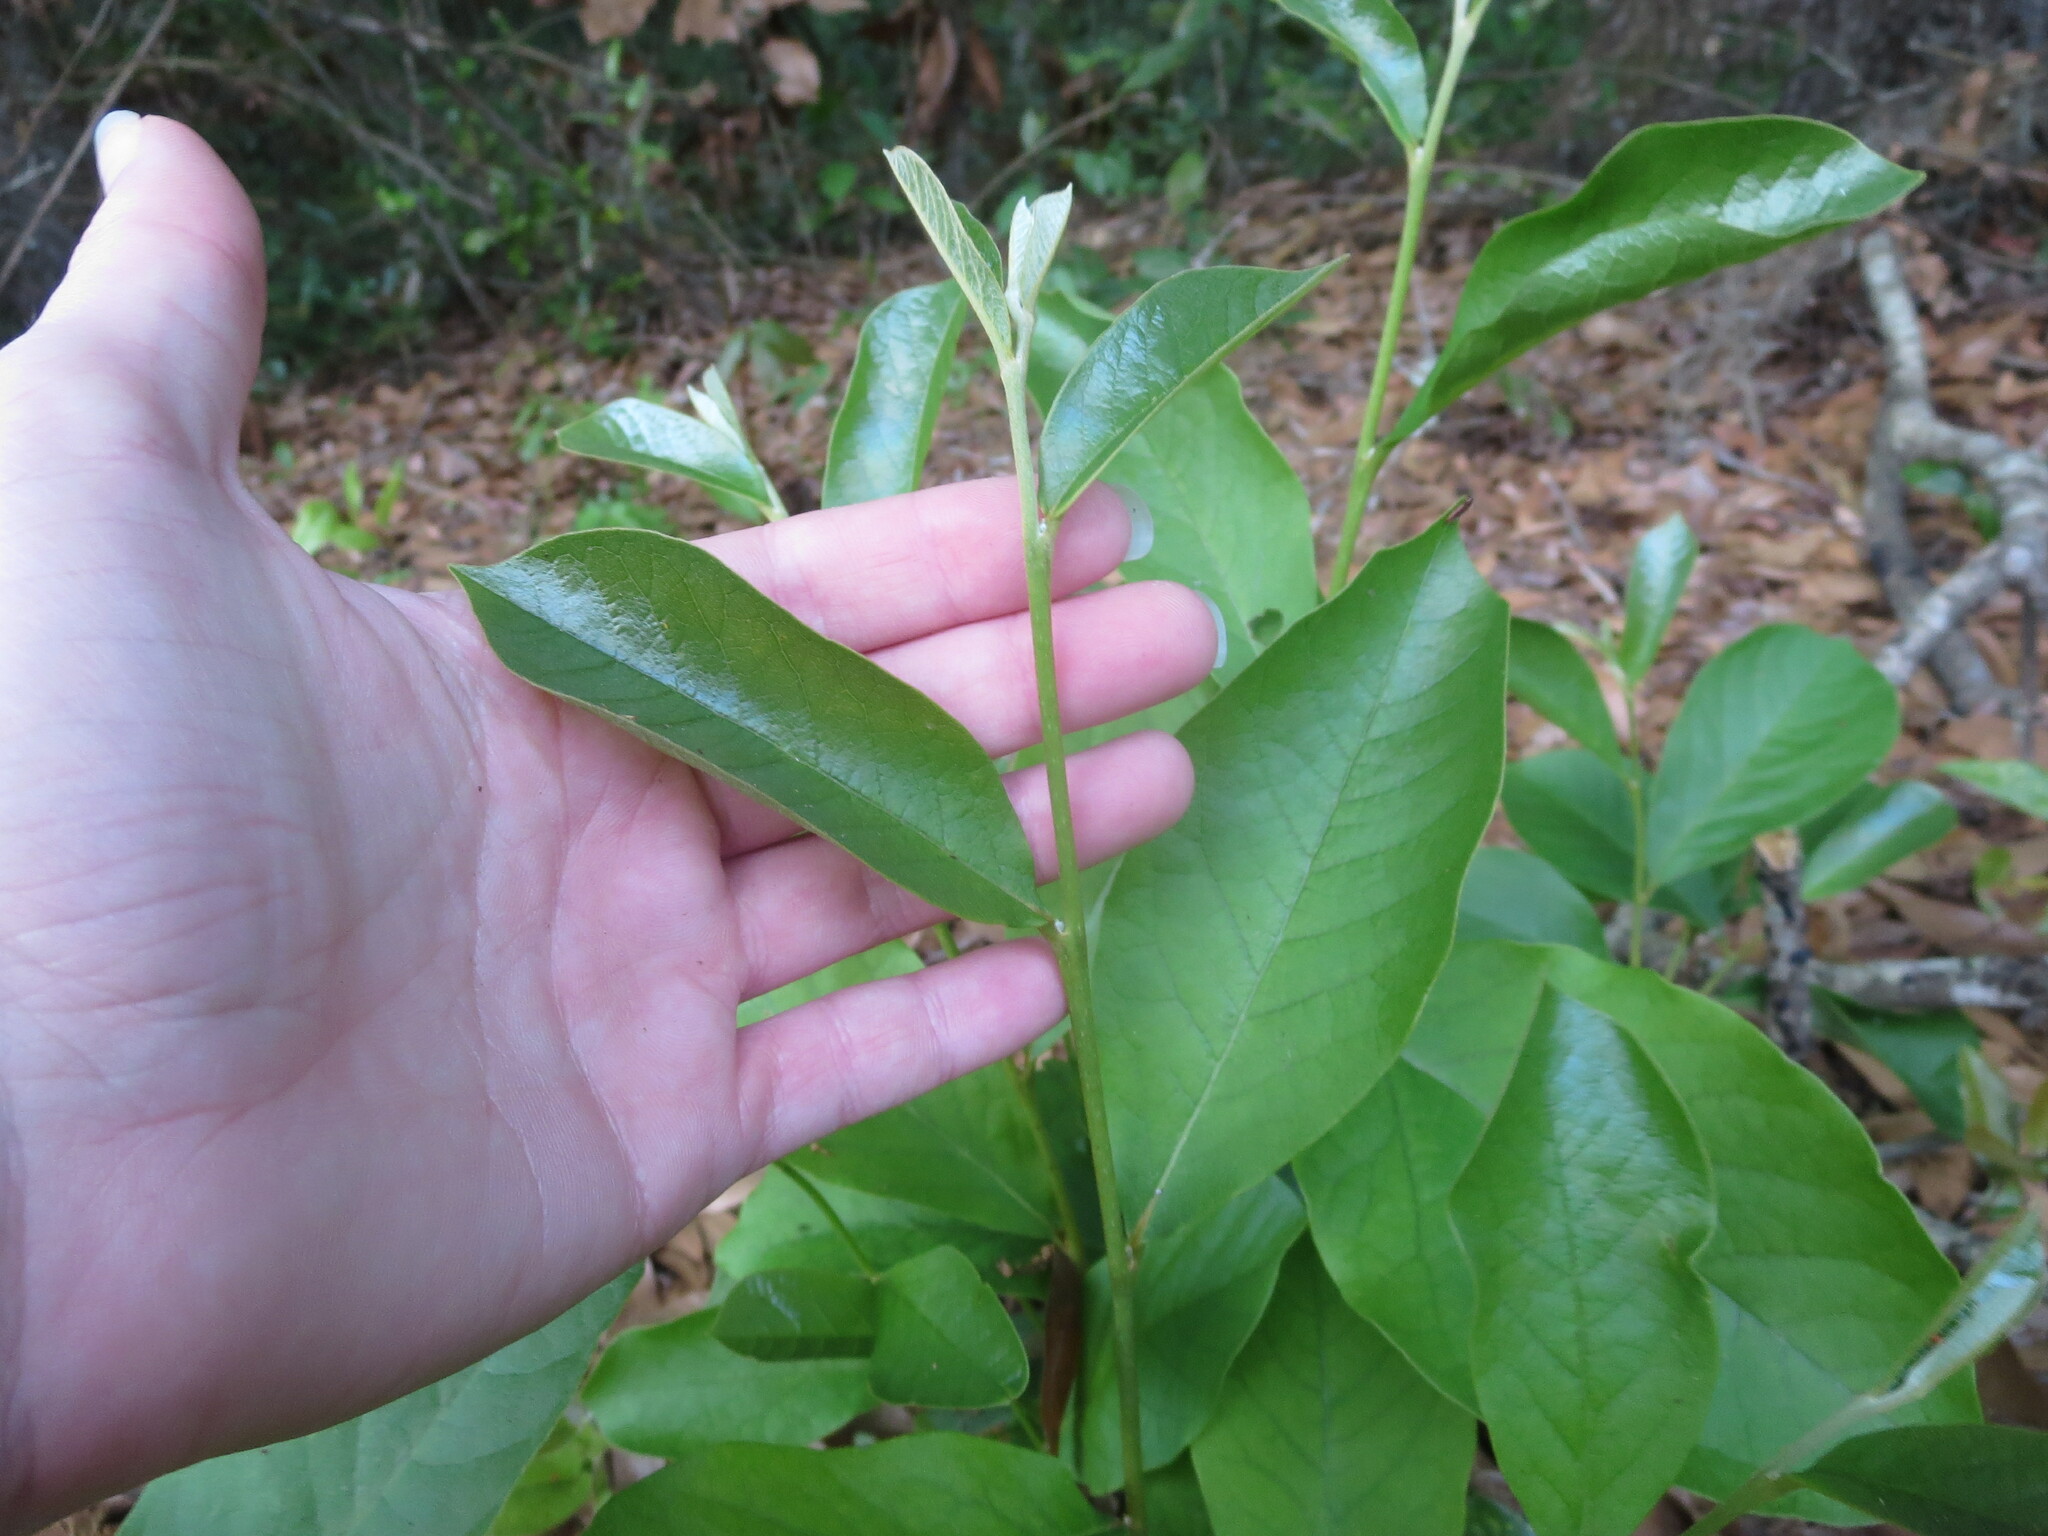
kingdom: Plantae
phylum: Tracheophyta
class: Magnoliopsida
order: Magnoliales
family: Annonaceae
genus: Asimina
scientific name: Asimina parviflora
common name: Dwarf pawpaw
